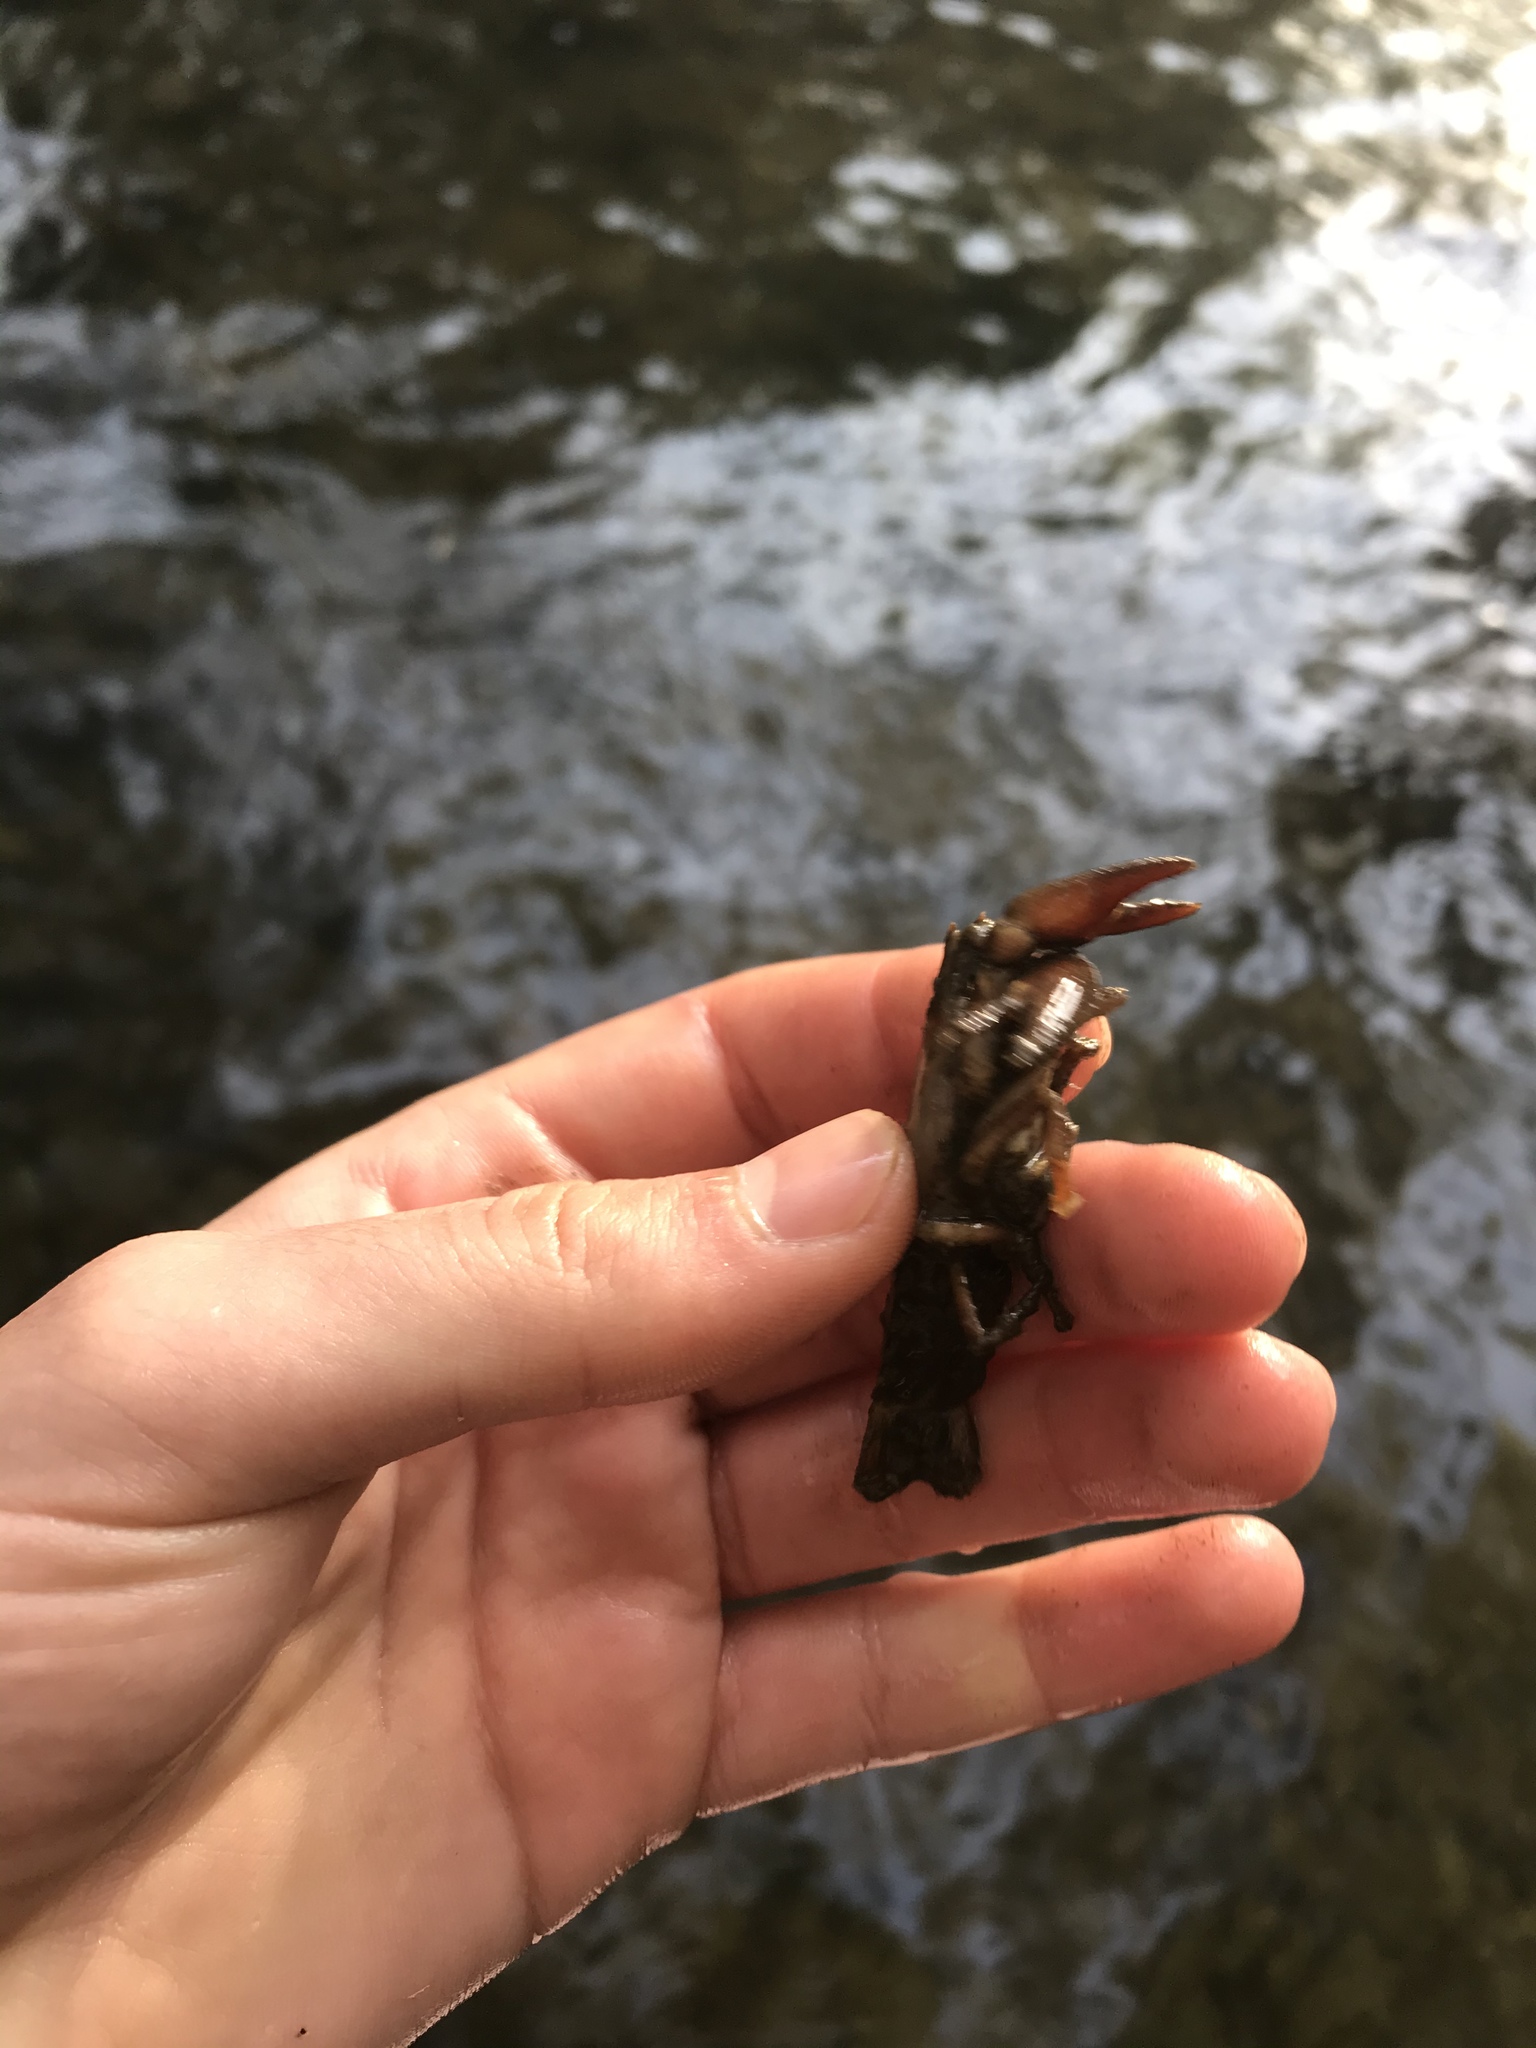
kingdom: Animalia
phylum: Arthropoda
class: Malacostraca
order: Decapoda
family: Astacidae
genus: Pacifastacus
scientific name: Pacifastacus leniusculus
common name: Signal crayfish
